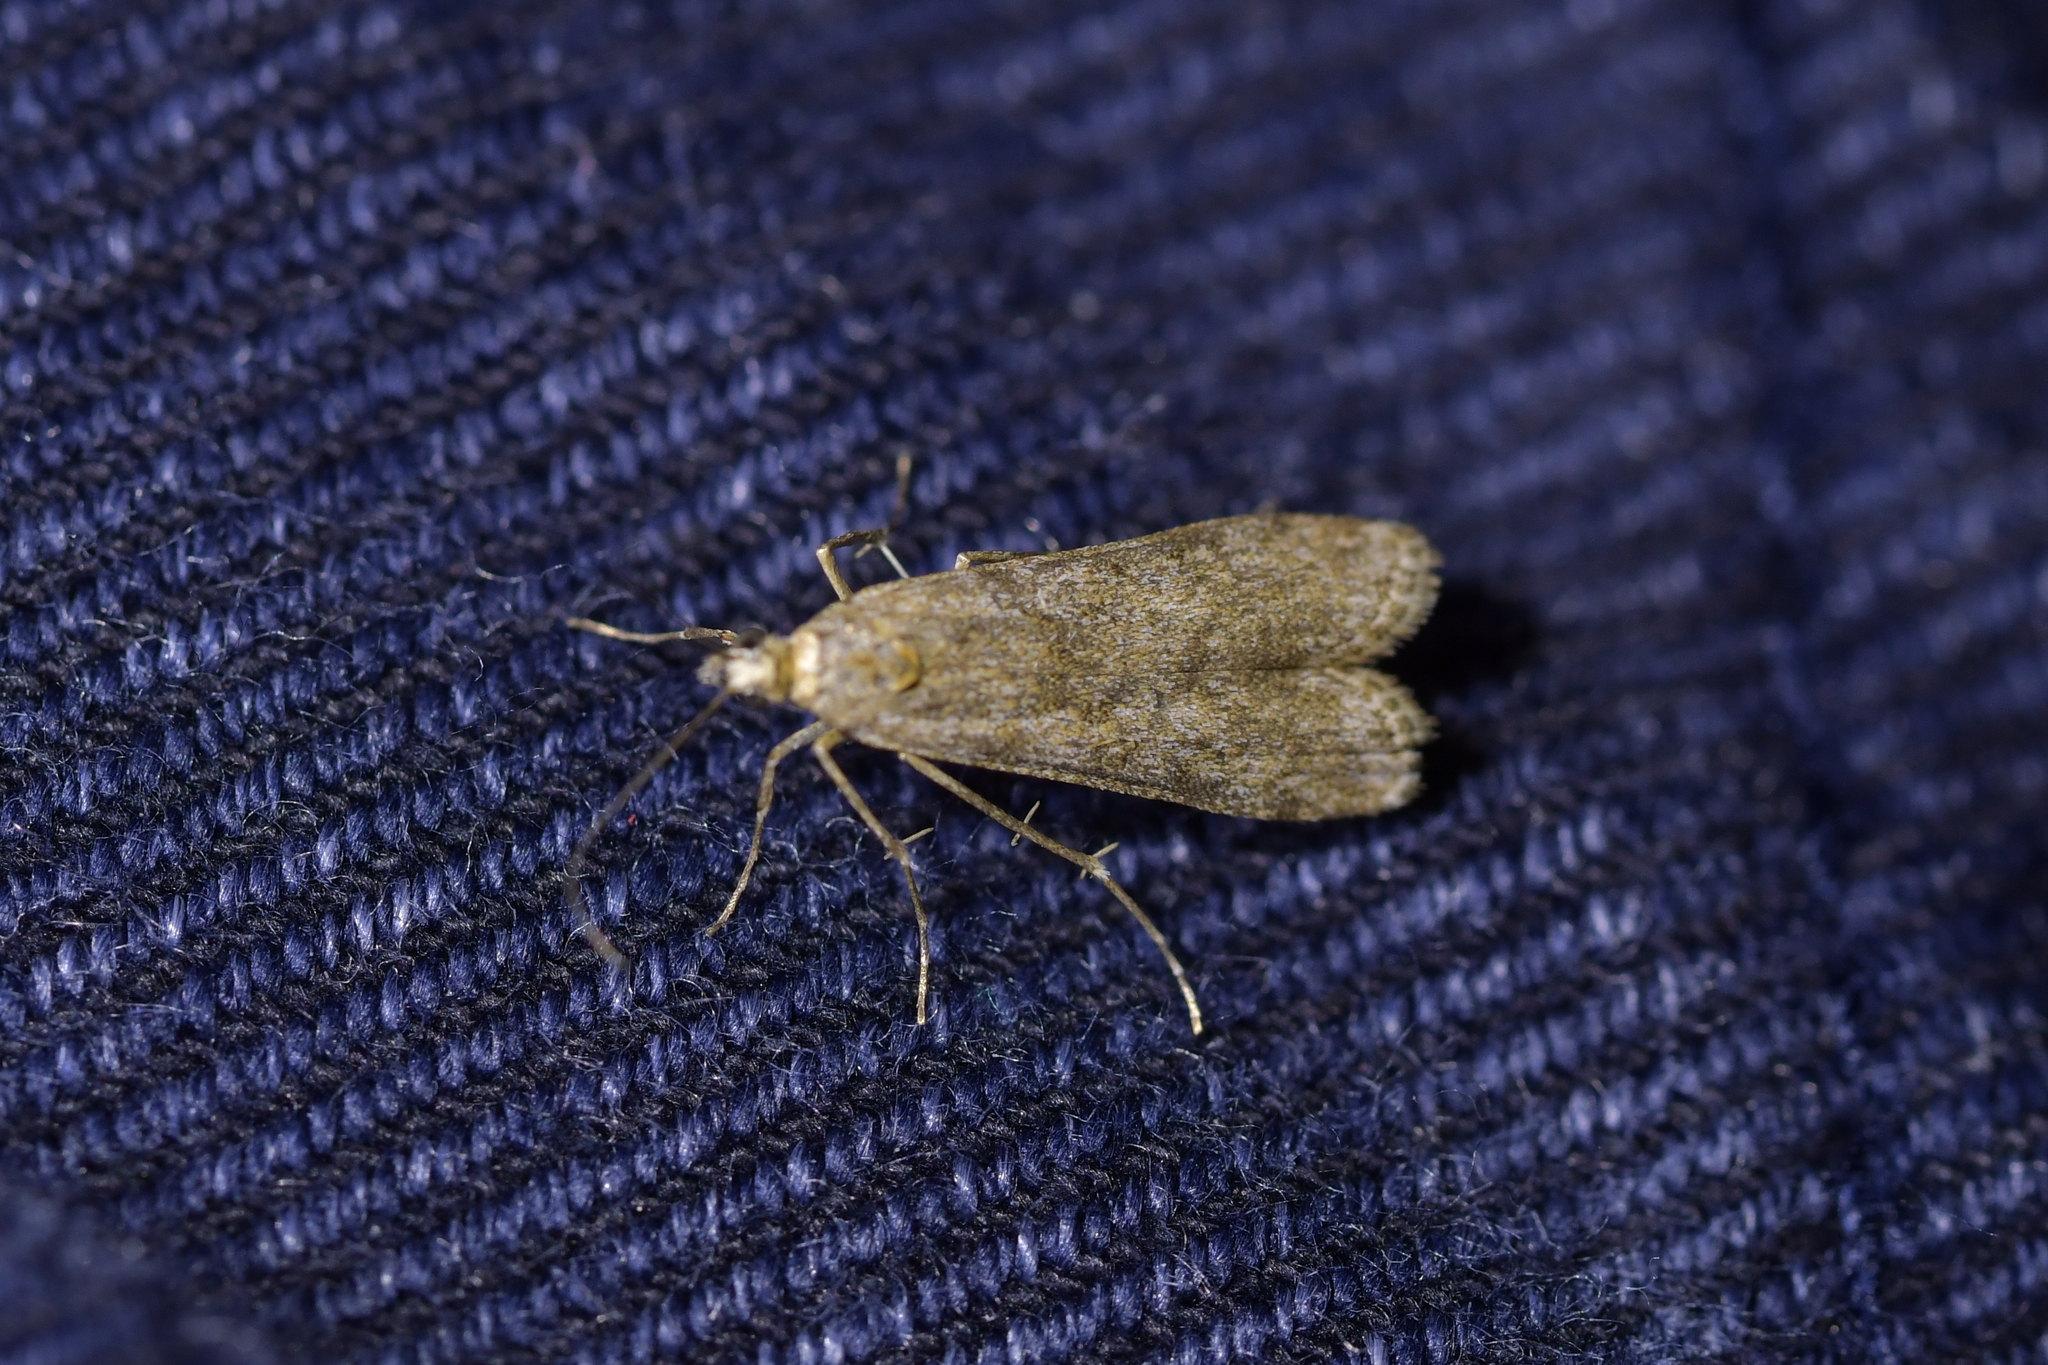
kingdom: Animalia
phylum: Arthropoda
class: Insecta
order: Lepidoptera
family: Crambidae
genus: Eudonia
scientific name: Eudonia leptalea
